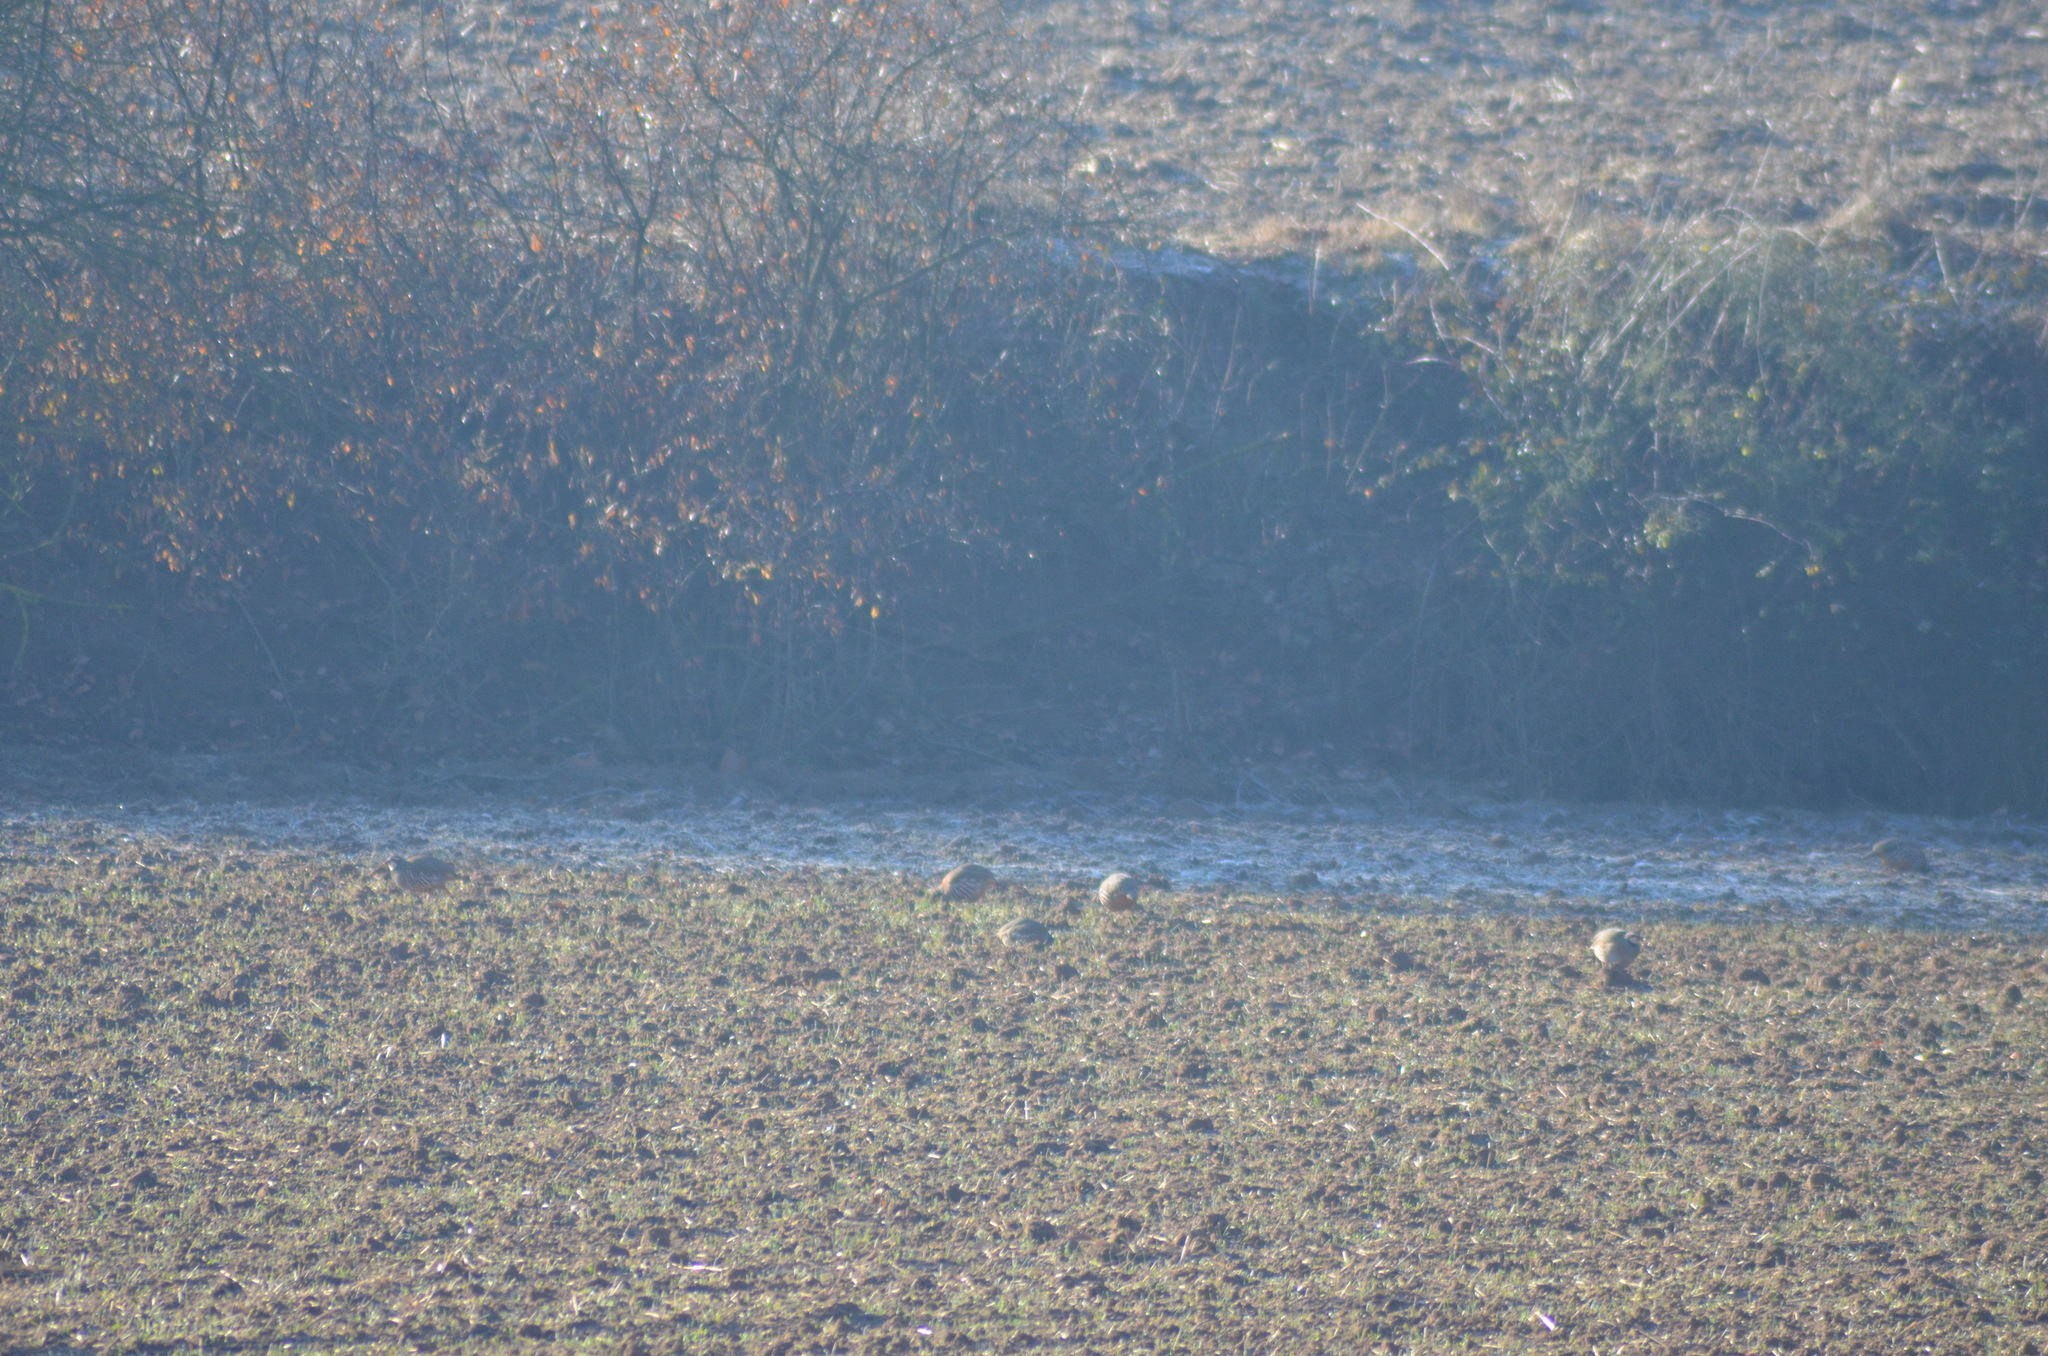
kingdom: Animalia
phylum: Chordata
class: Aves
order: Galliformes
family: Phasianidae
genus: Alectoris
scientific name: Alectoris rufa
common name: Red-legged partridge
